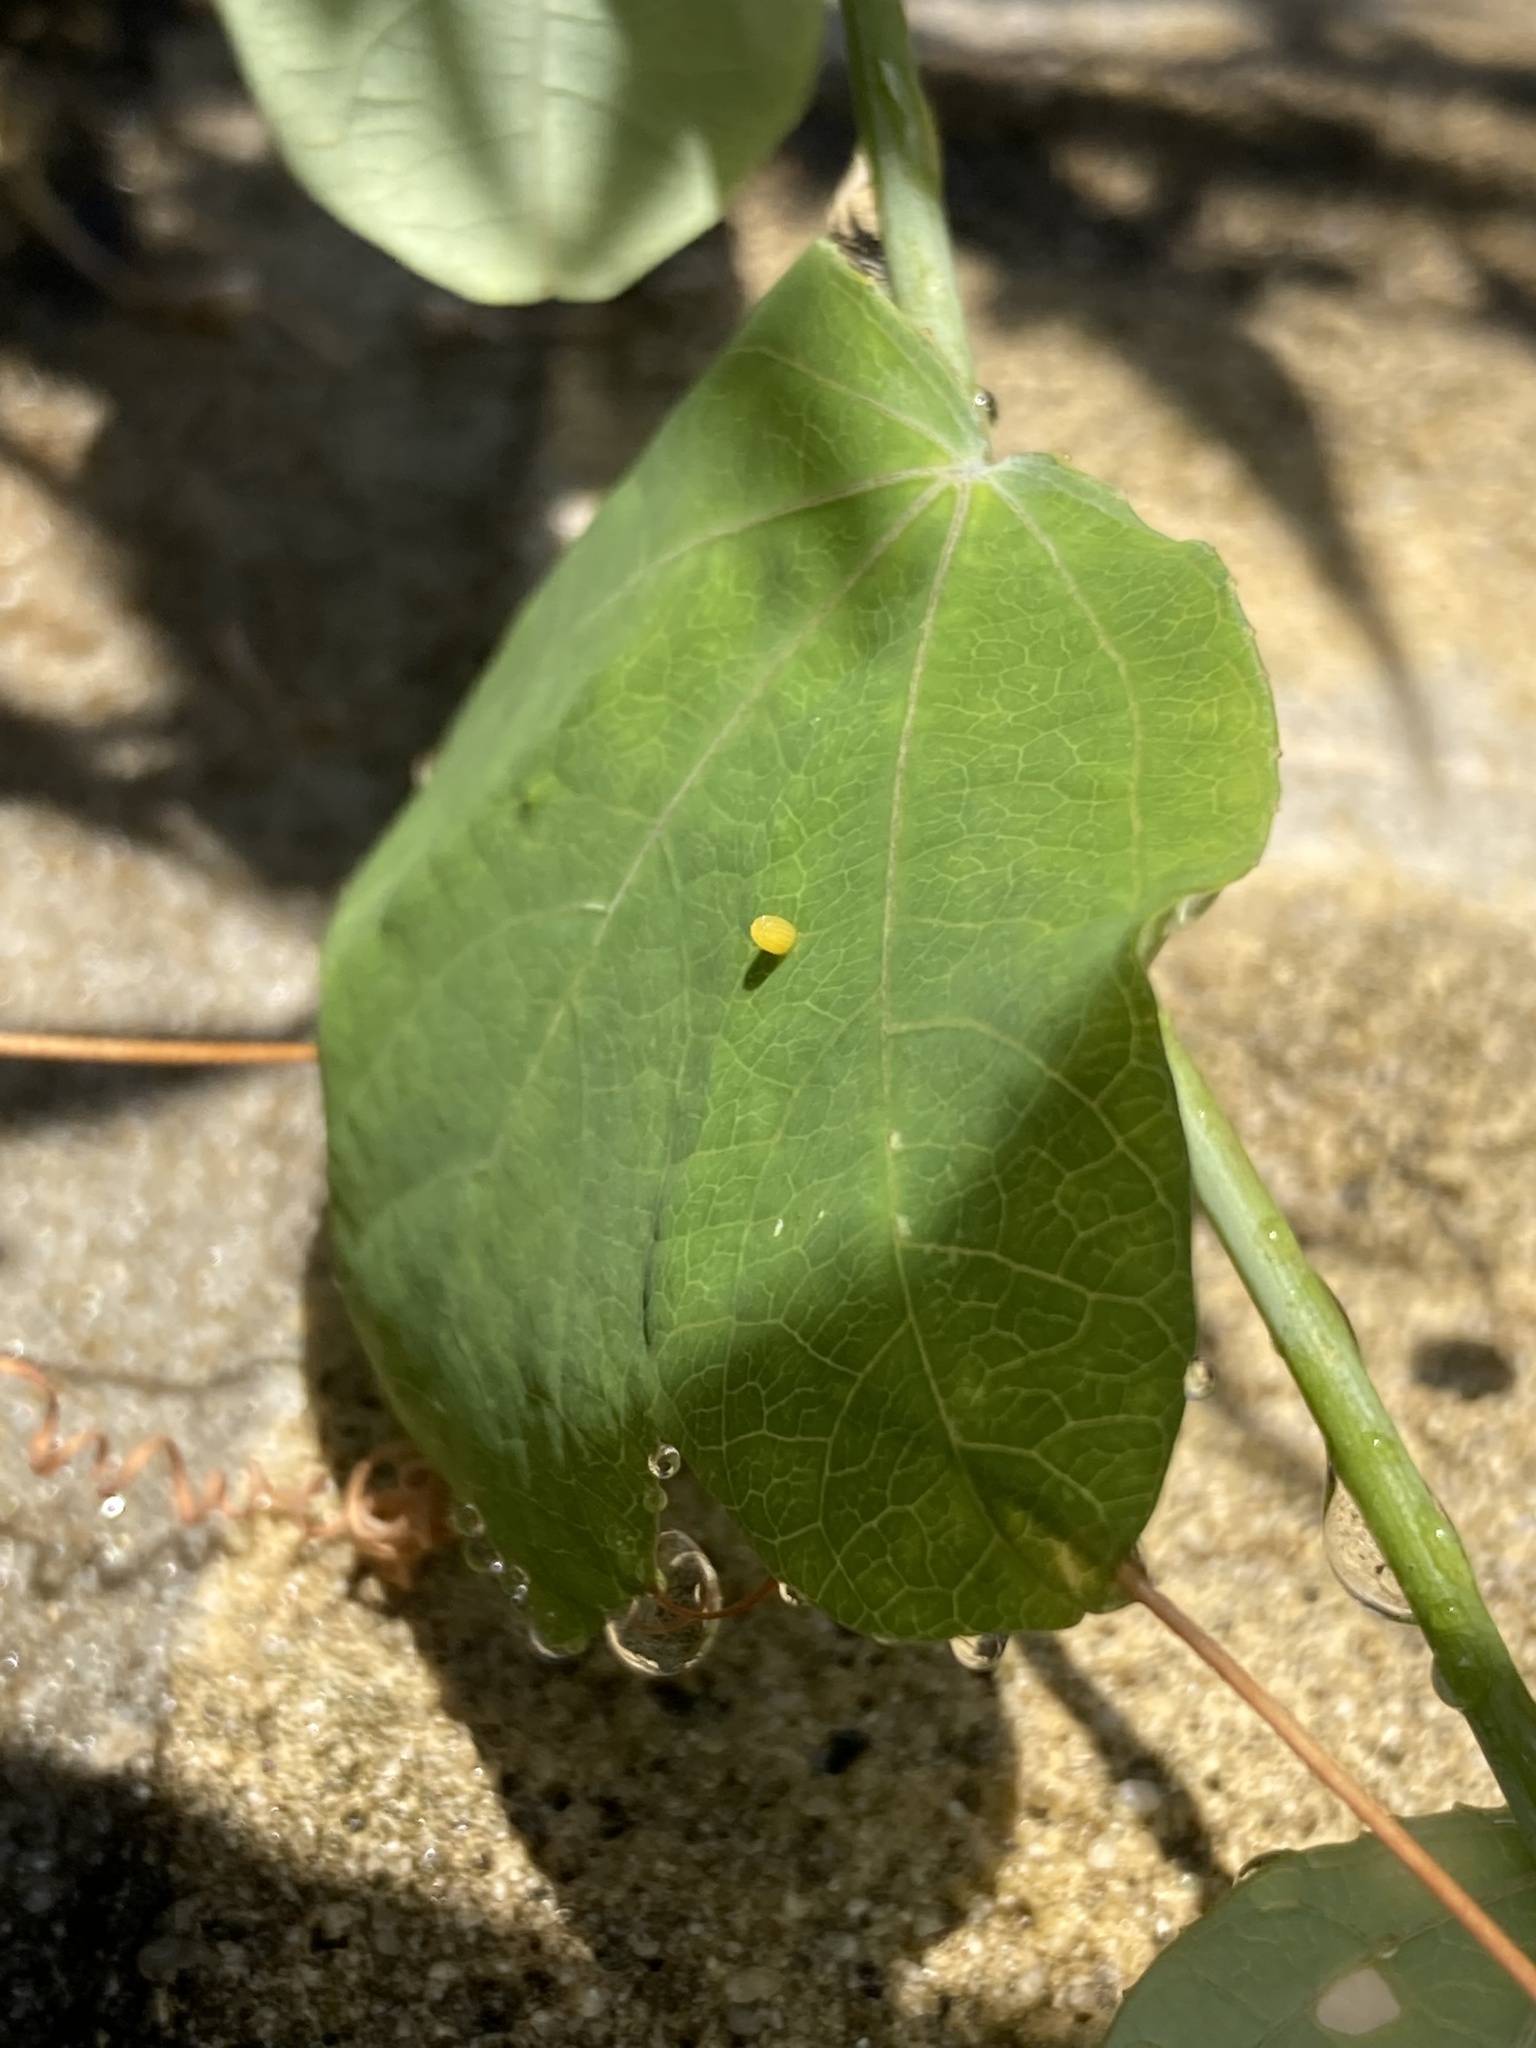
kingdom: Animalia
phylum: Arthropoda
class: Insecta
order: Lepidoptera
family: Nymphalidae
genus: Dione
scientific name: Dione vanillae
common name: Gulf fritillary
